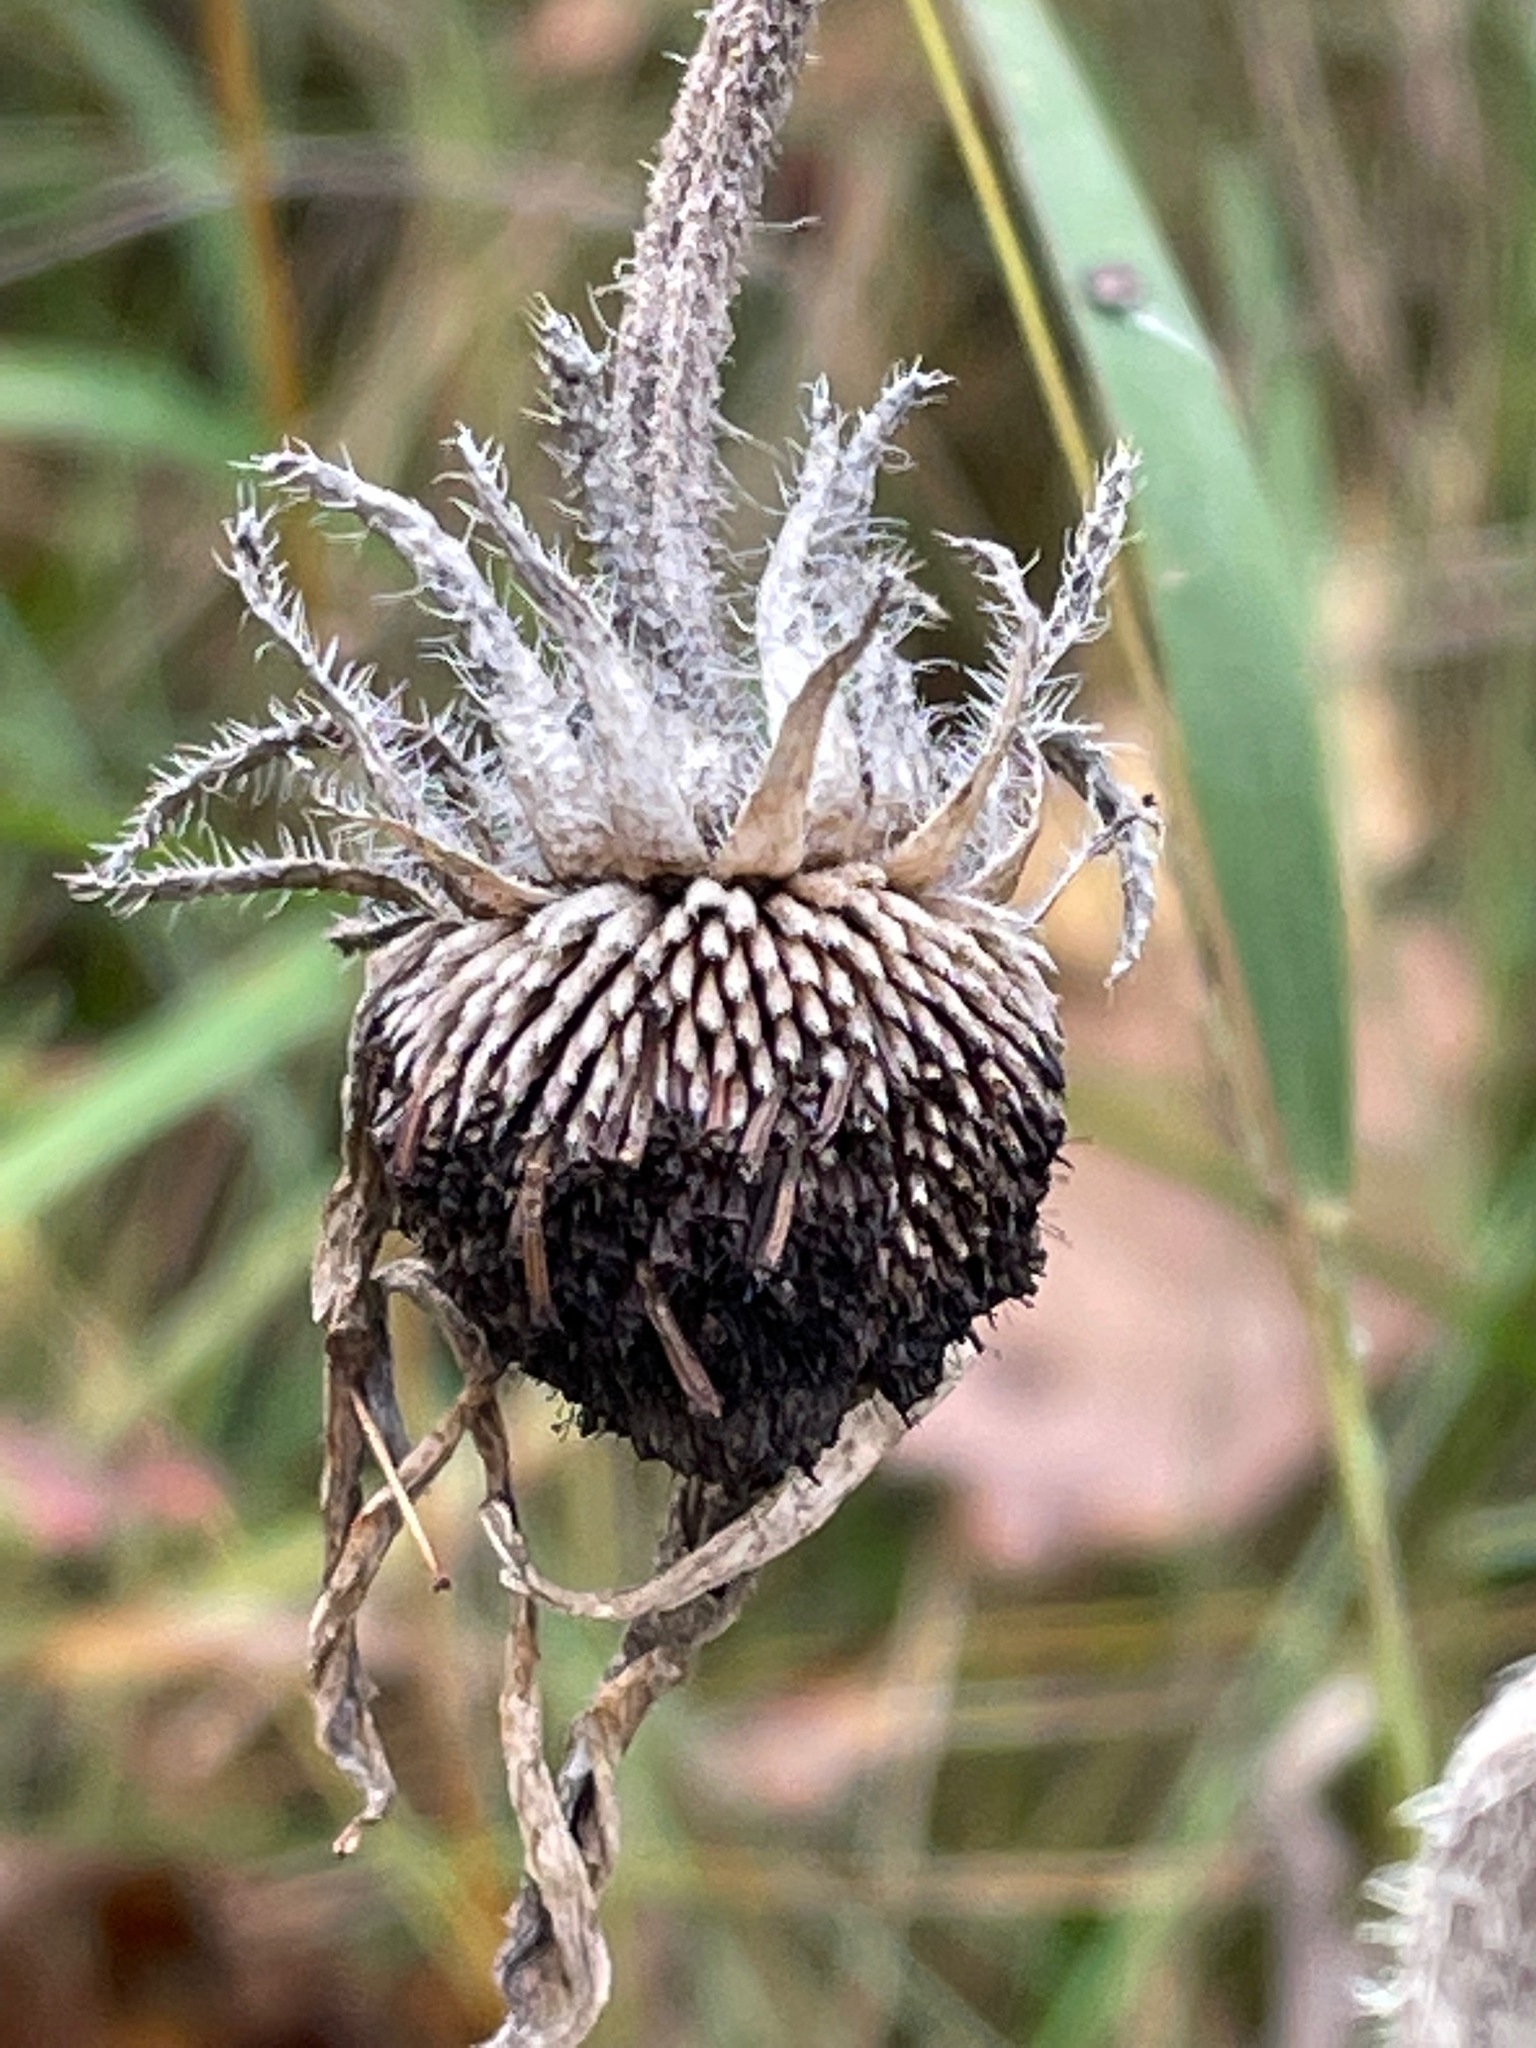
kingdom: Plantae
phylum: Tracheophyta
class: Magnoliopsida
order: Asterales
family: Asteraceae
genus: Rudbeckia
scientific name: Rudbeckia hirta
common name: Black-eyed-susan
